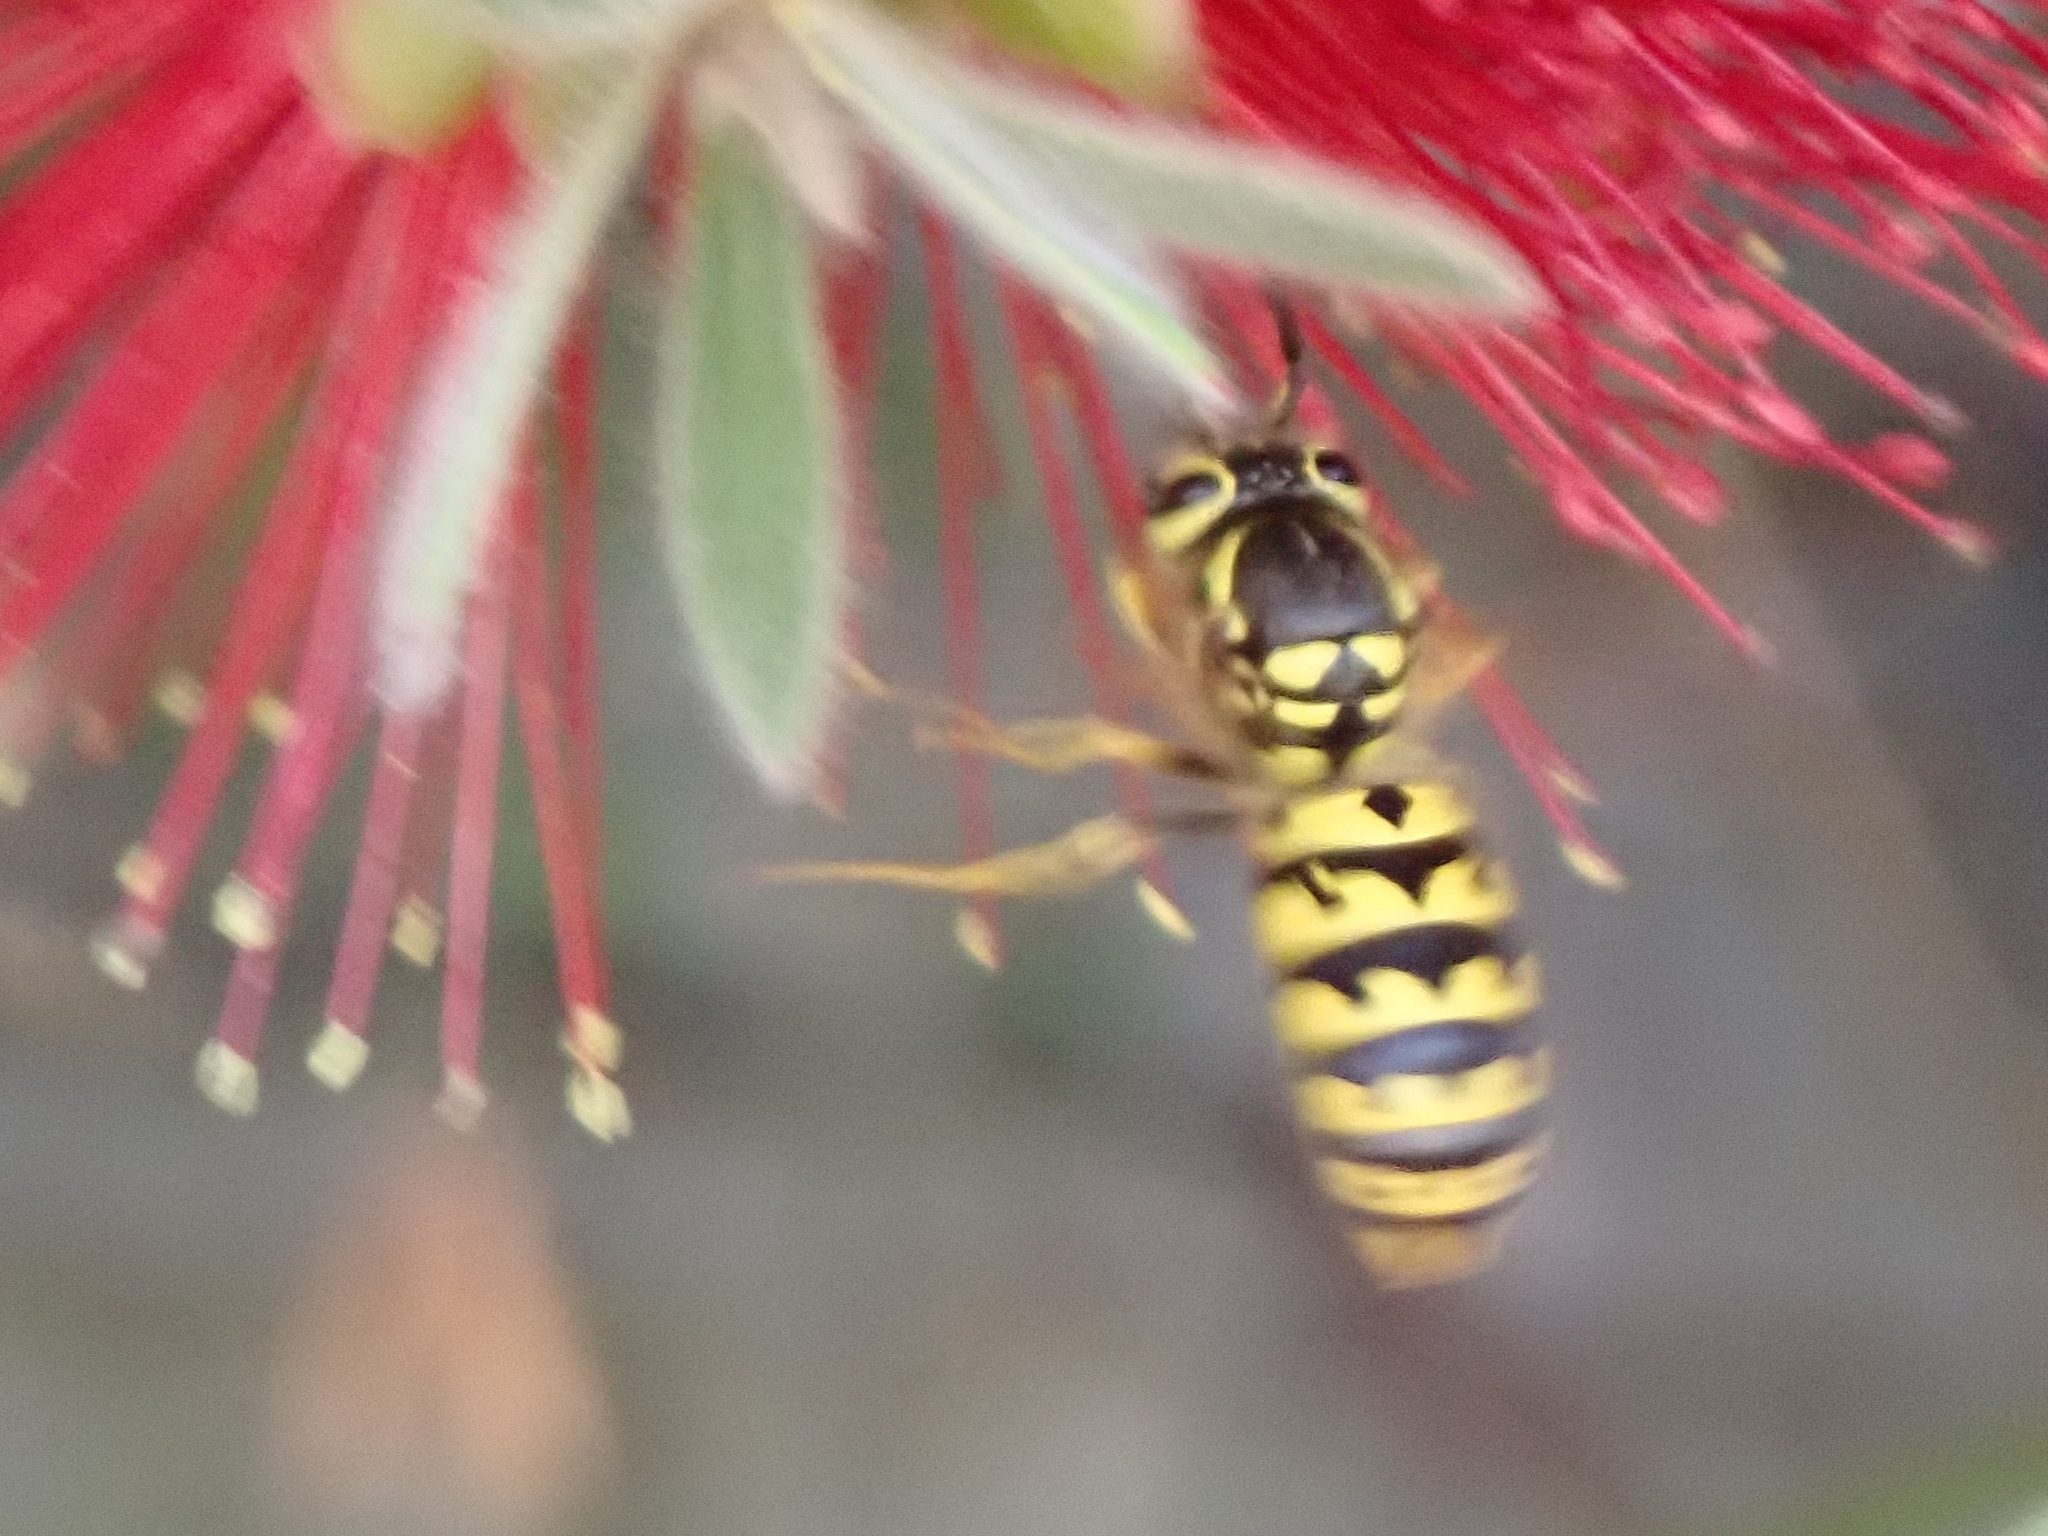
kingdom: Animalia
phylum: Arthropoda
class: Insecta
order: Hymenoptera
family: Vespidae
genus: Vespula
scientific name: Vespula pensylvanica
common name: Western yellowjacket
